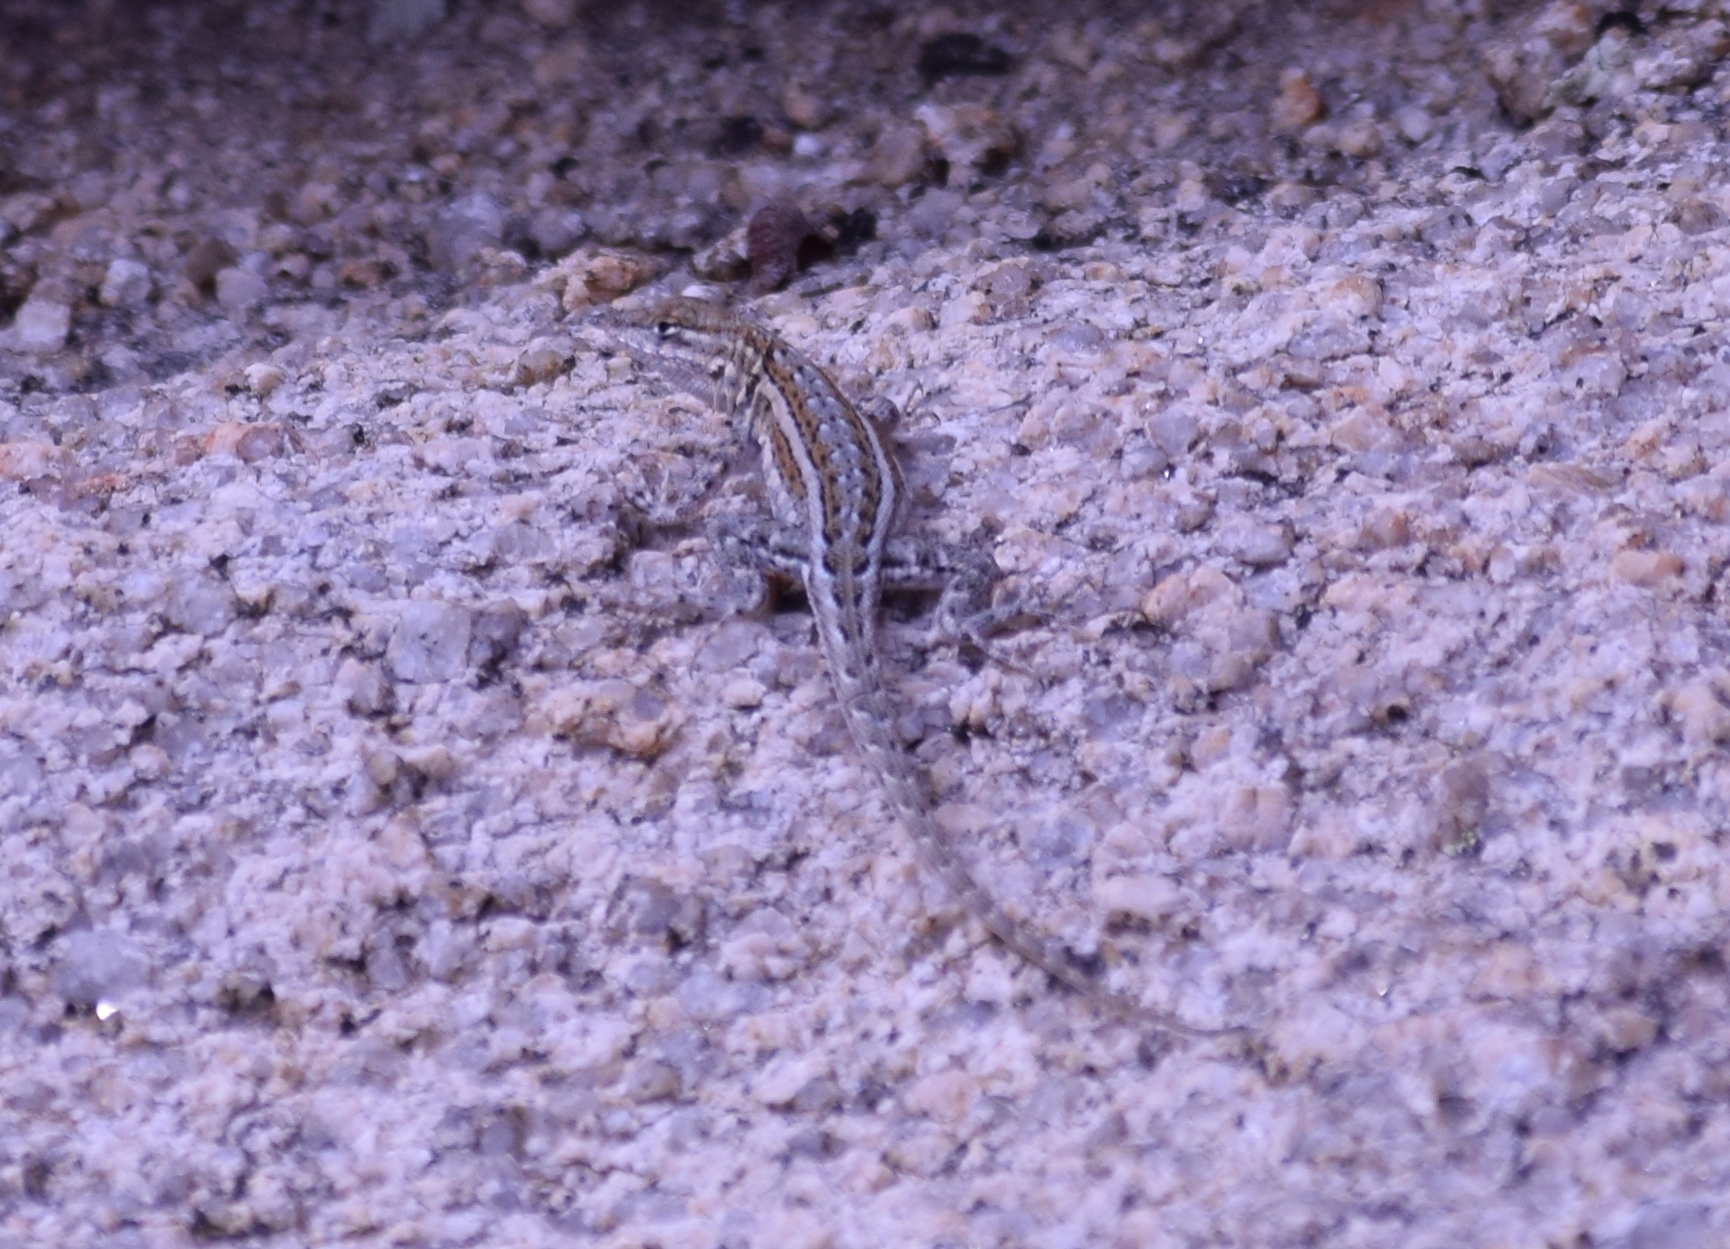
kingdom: Animalia
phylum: Chordata
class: Squamata
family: Phrynosomatidae
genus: Uta
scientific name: Uta stansburiana
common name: Side-blotched lizard
